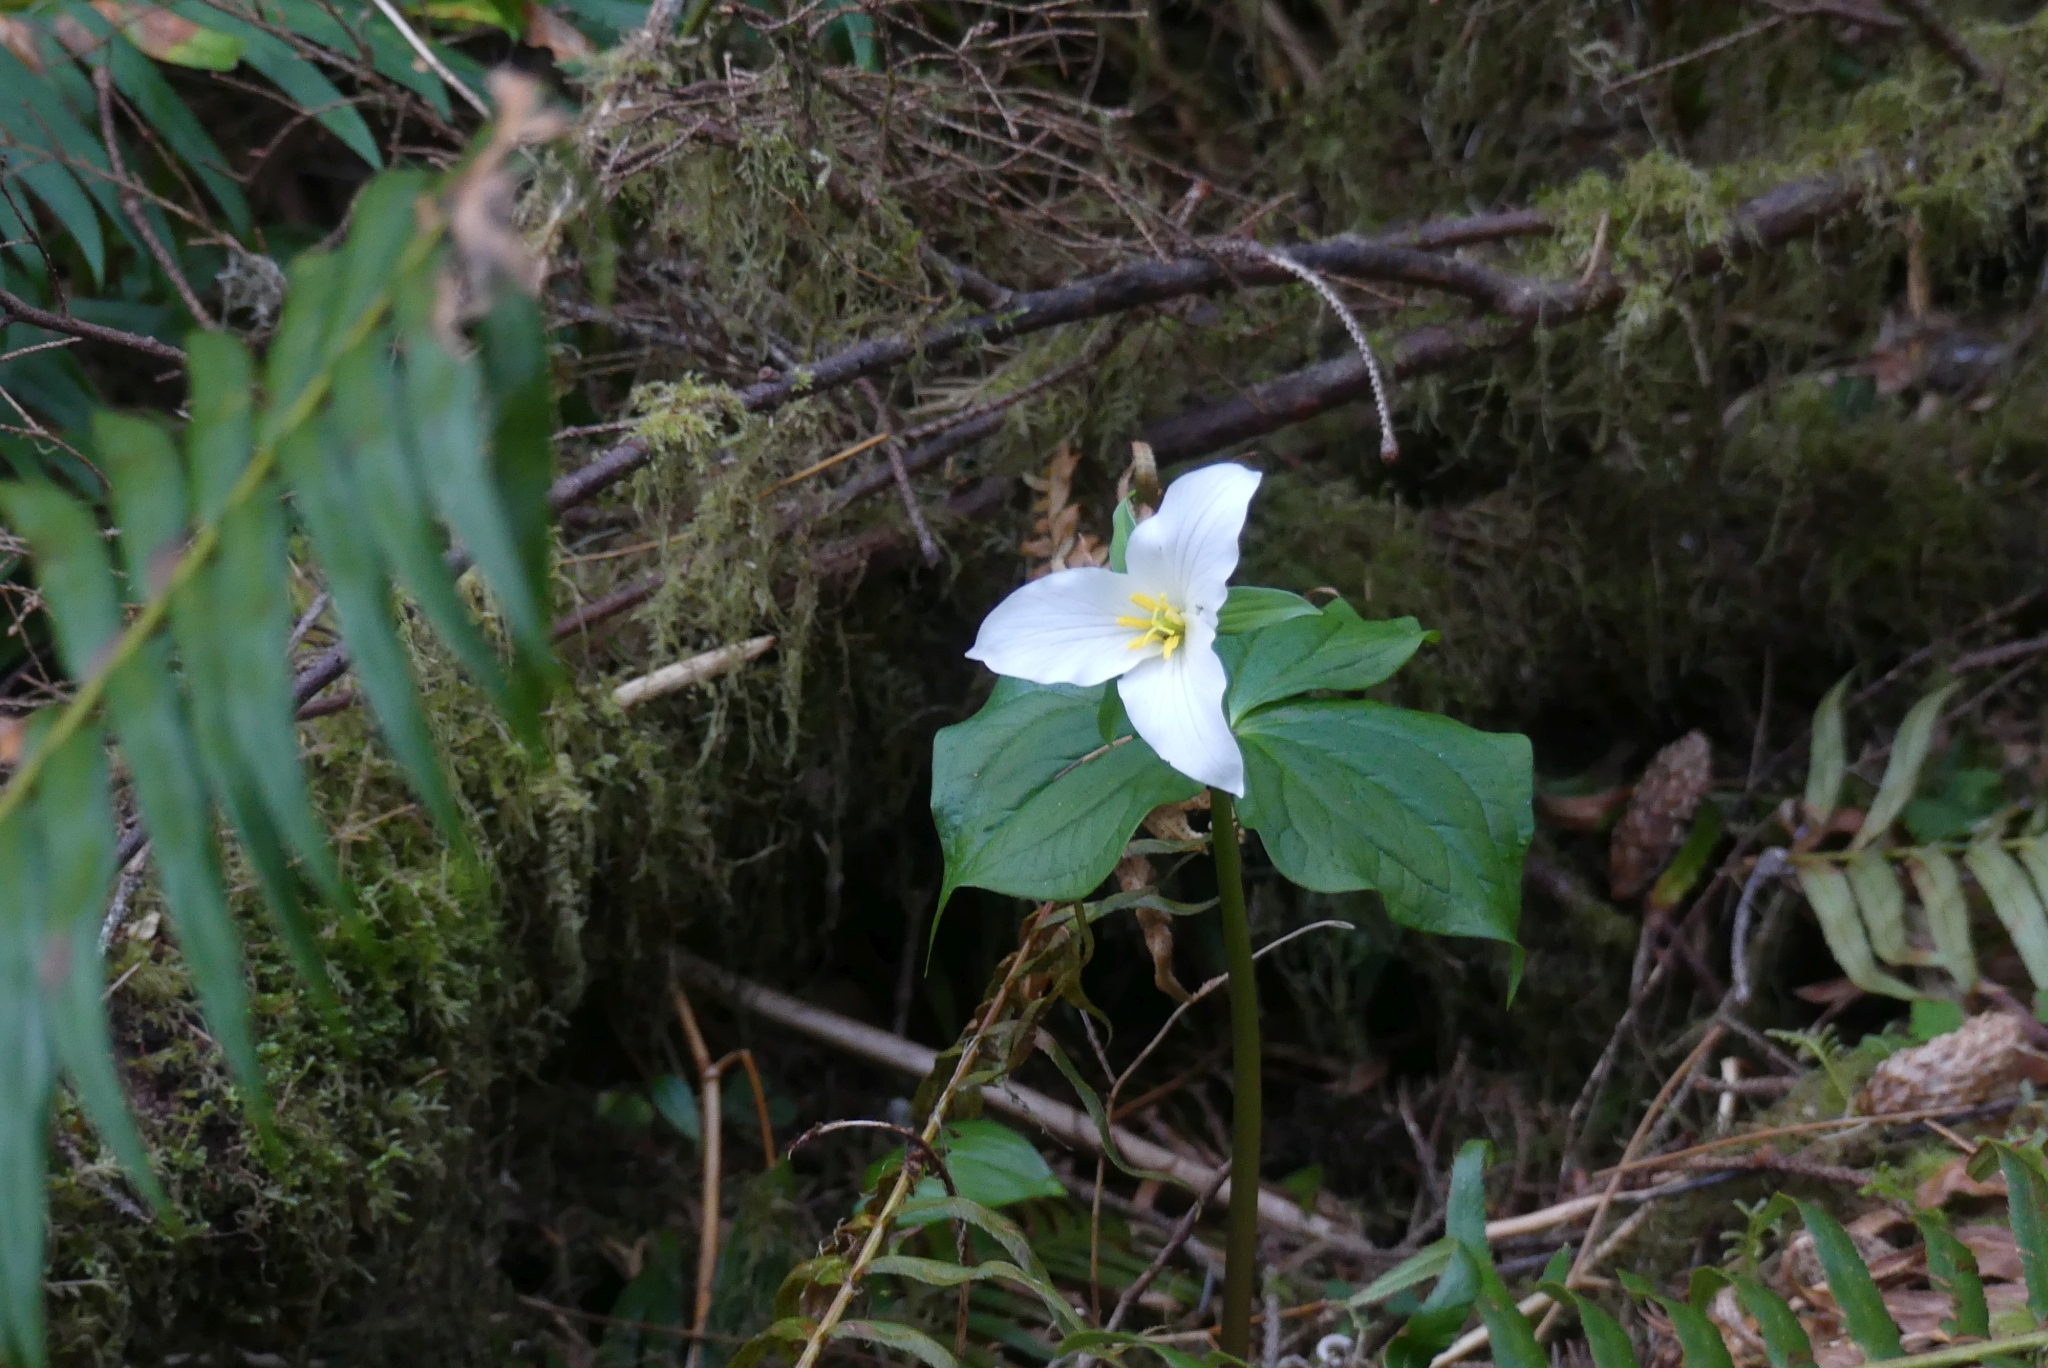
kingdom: Plantae
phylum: Tracheophyta
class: Liliopsida
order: Liliales
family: Melanthiaceae
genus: Trillium
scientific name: Trillium ovatum
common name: Pacific trillium
